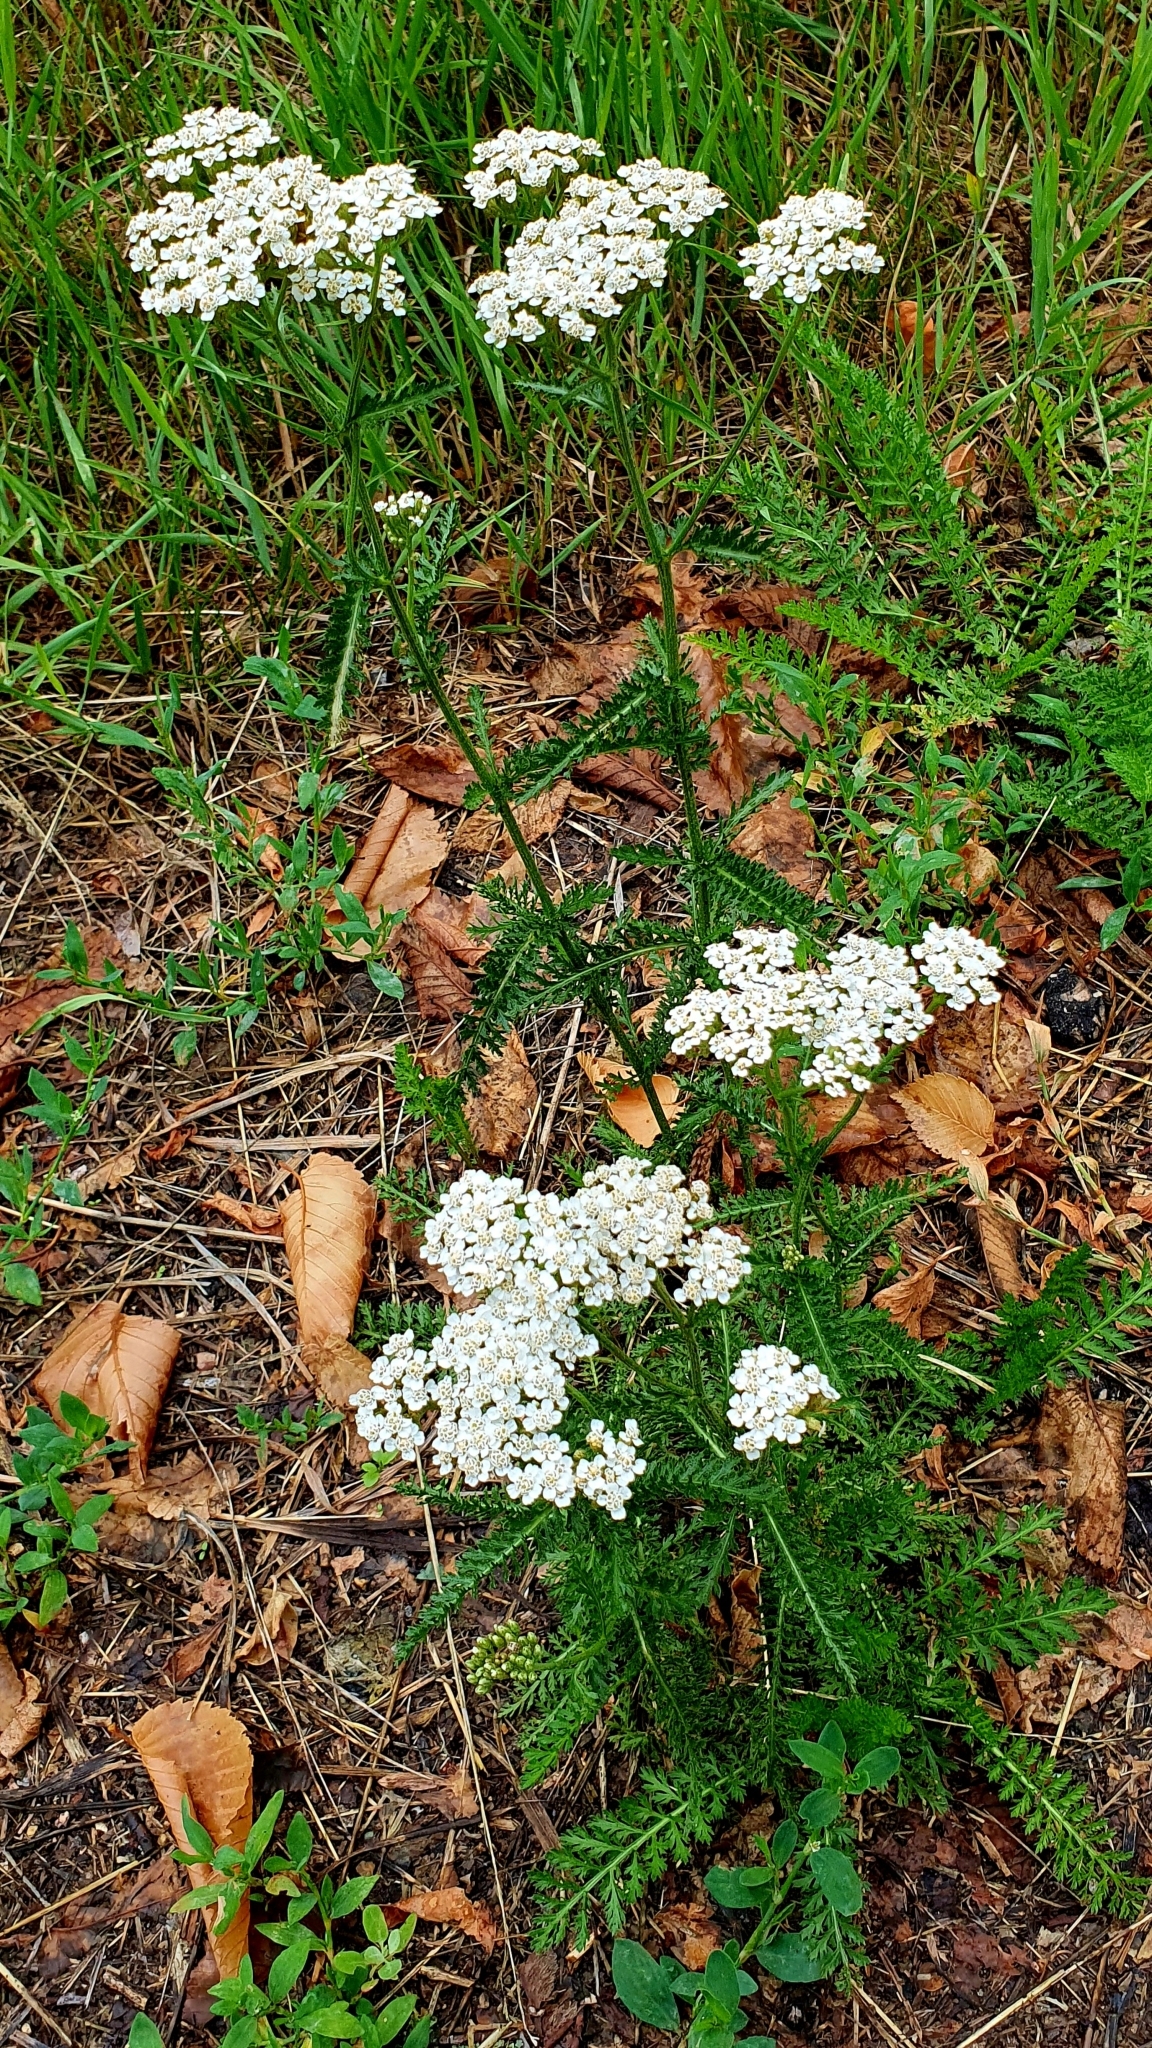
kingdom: Plantae
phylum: Tracheophyta
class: Magnoliopsida
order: Asterales
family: Asteraceae
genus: Achillea
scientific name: Achillea millefolium
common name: Yarrow
